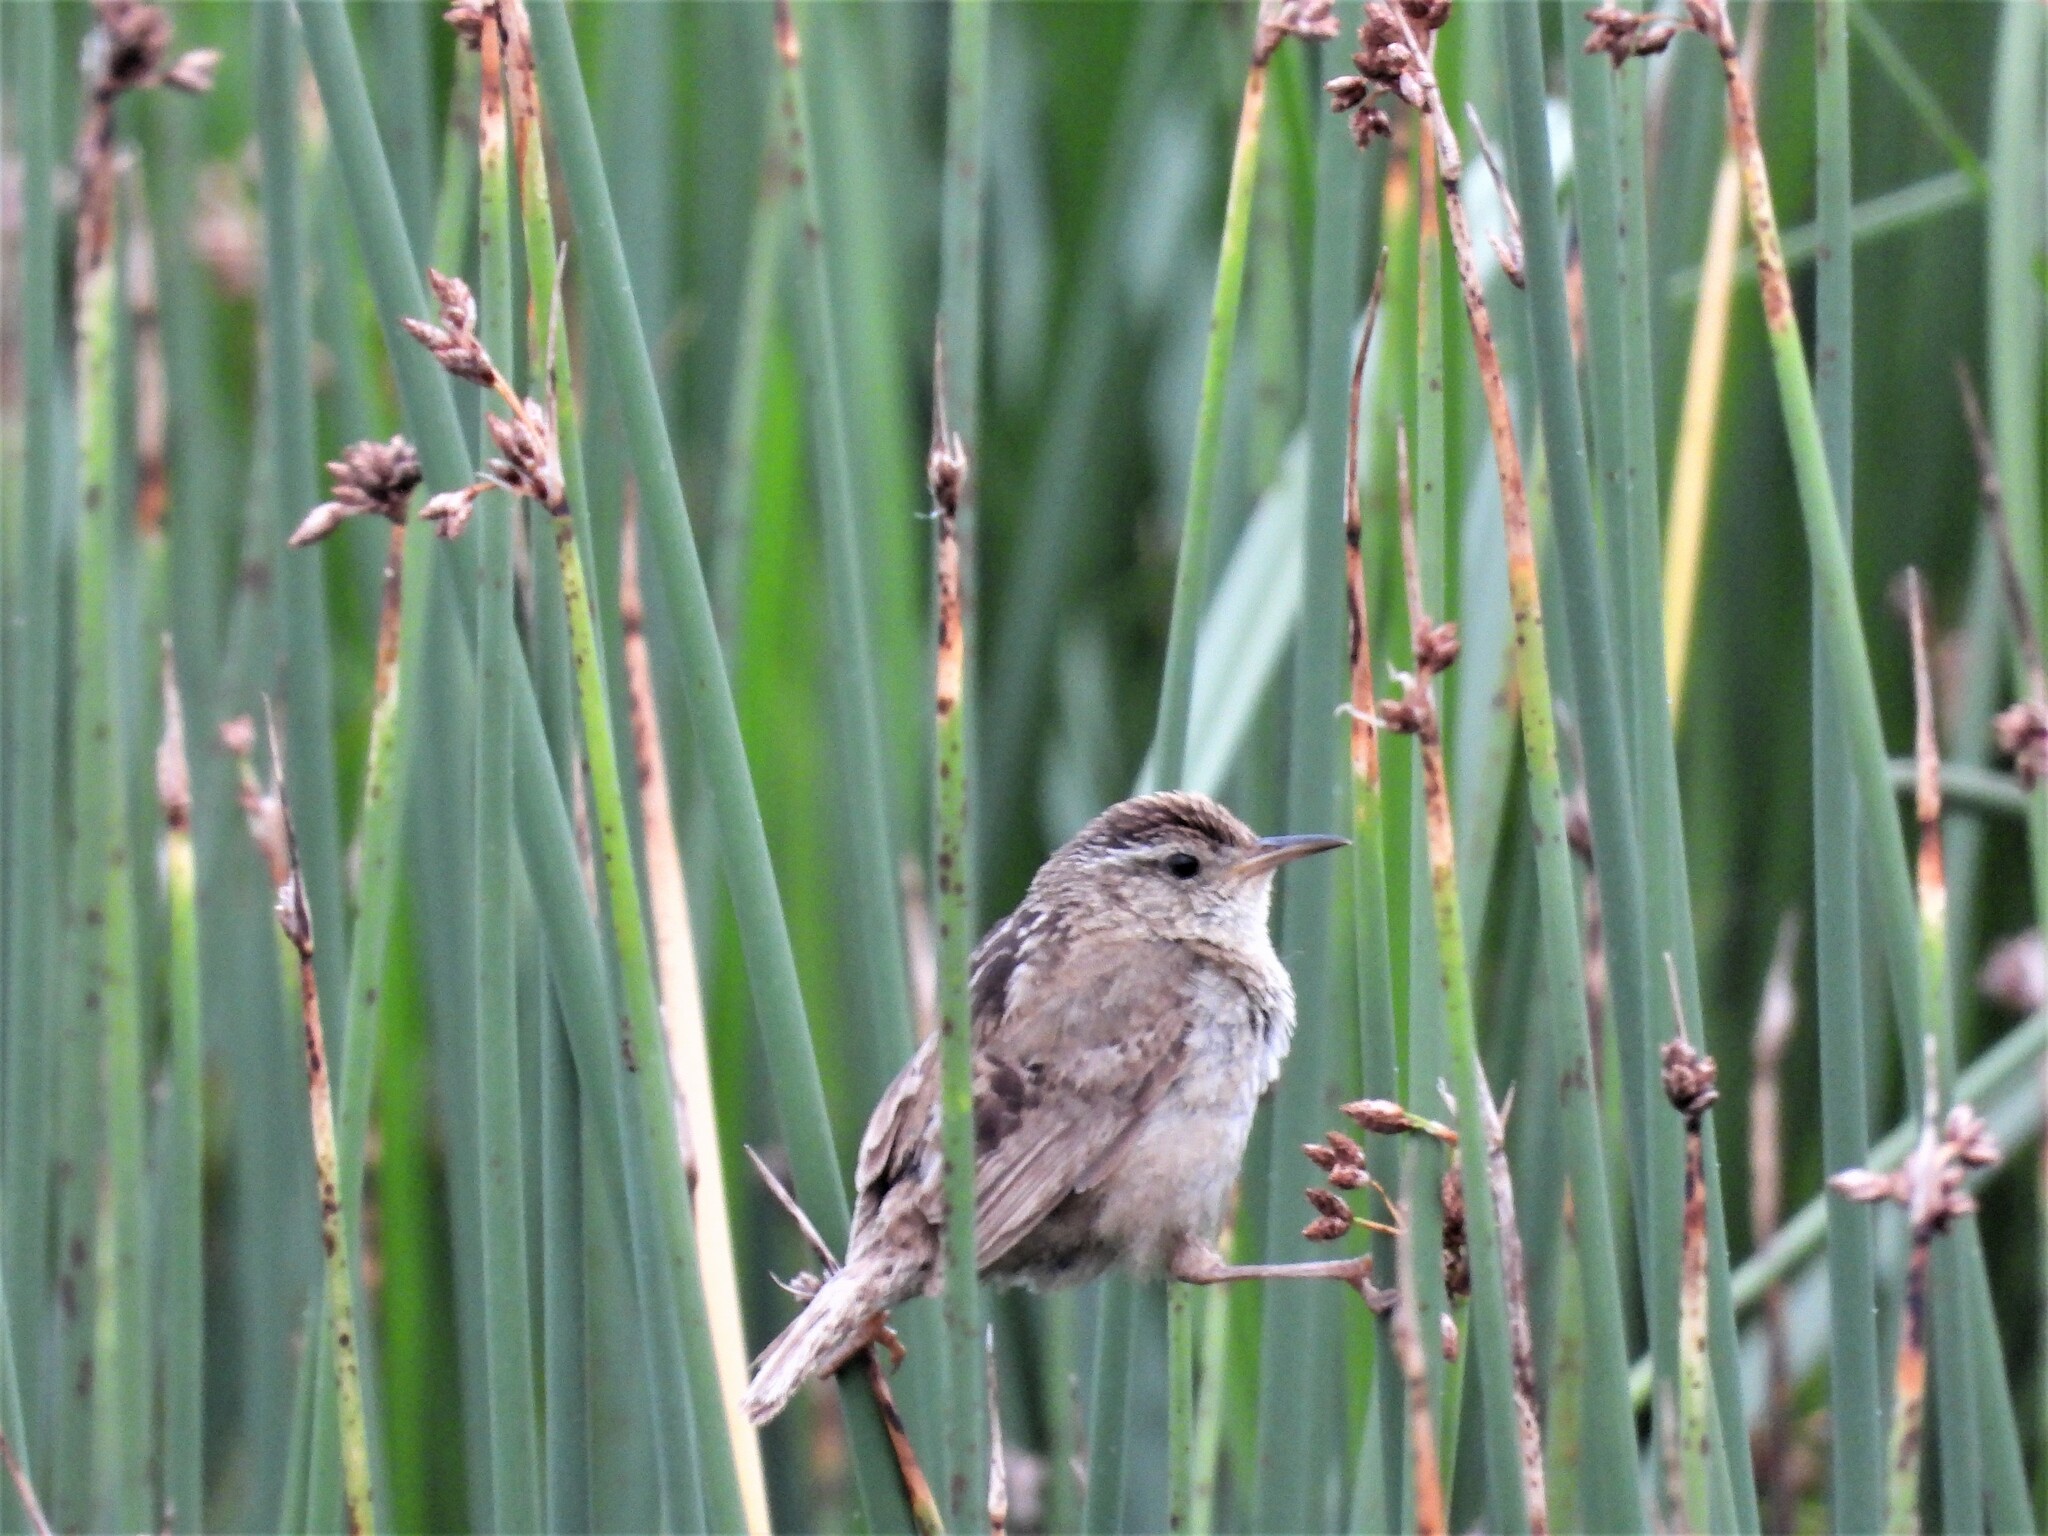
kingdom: Animalia
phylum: Chordata
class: Aves
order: Passeriformes
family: Troglodytidae
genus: Cistothorus
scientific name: Cistothorus palustris
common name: Marsh wren
